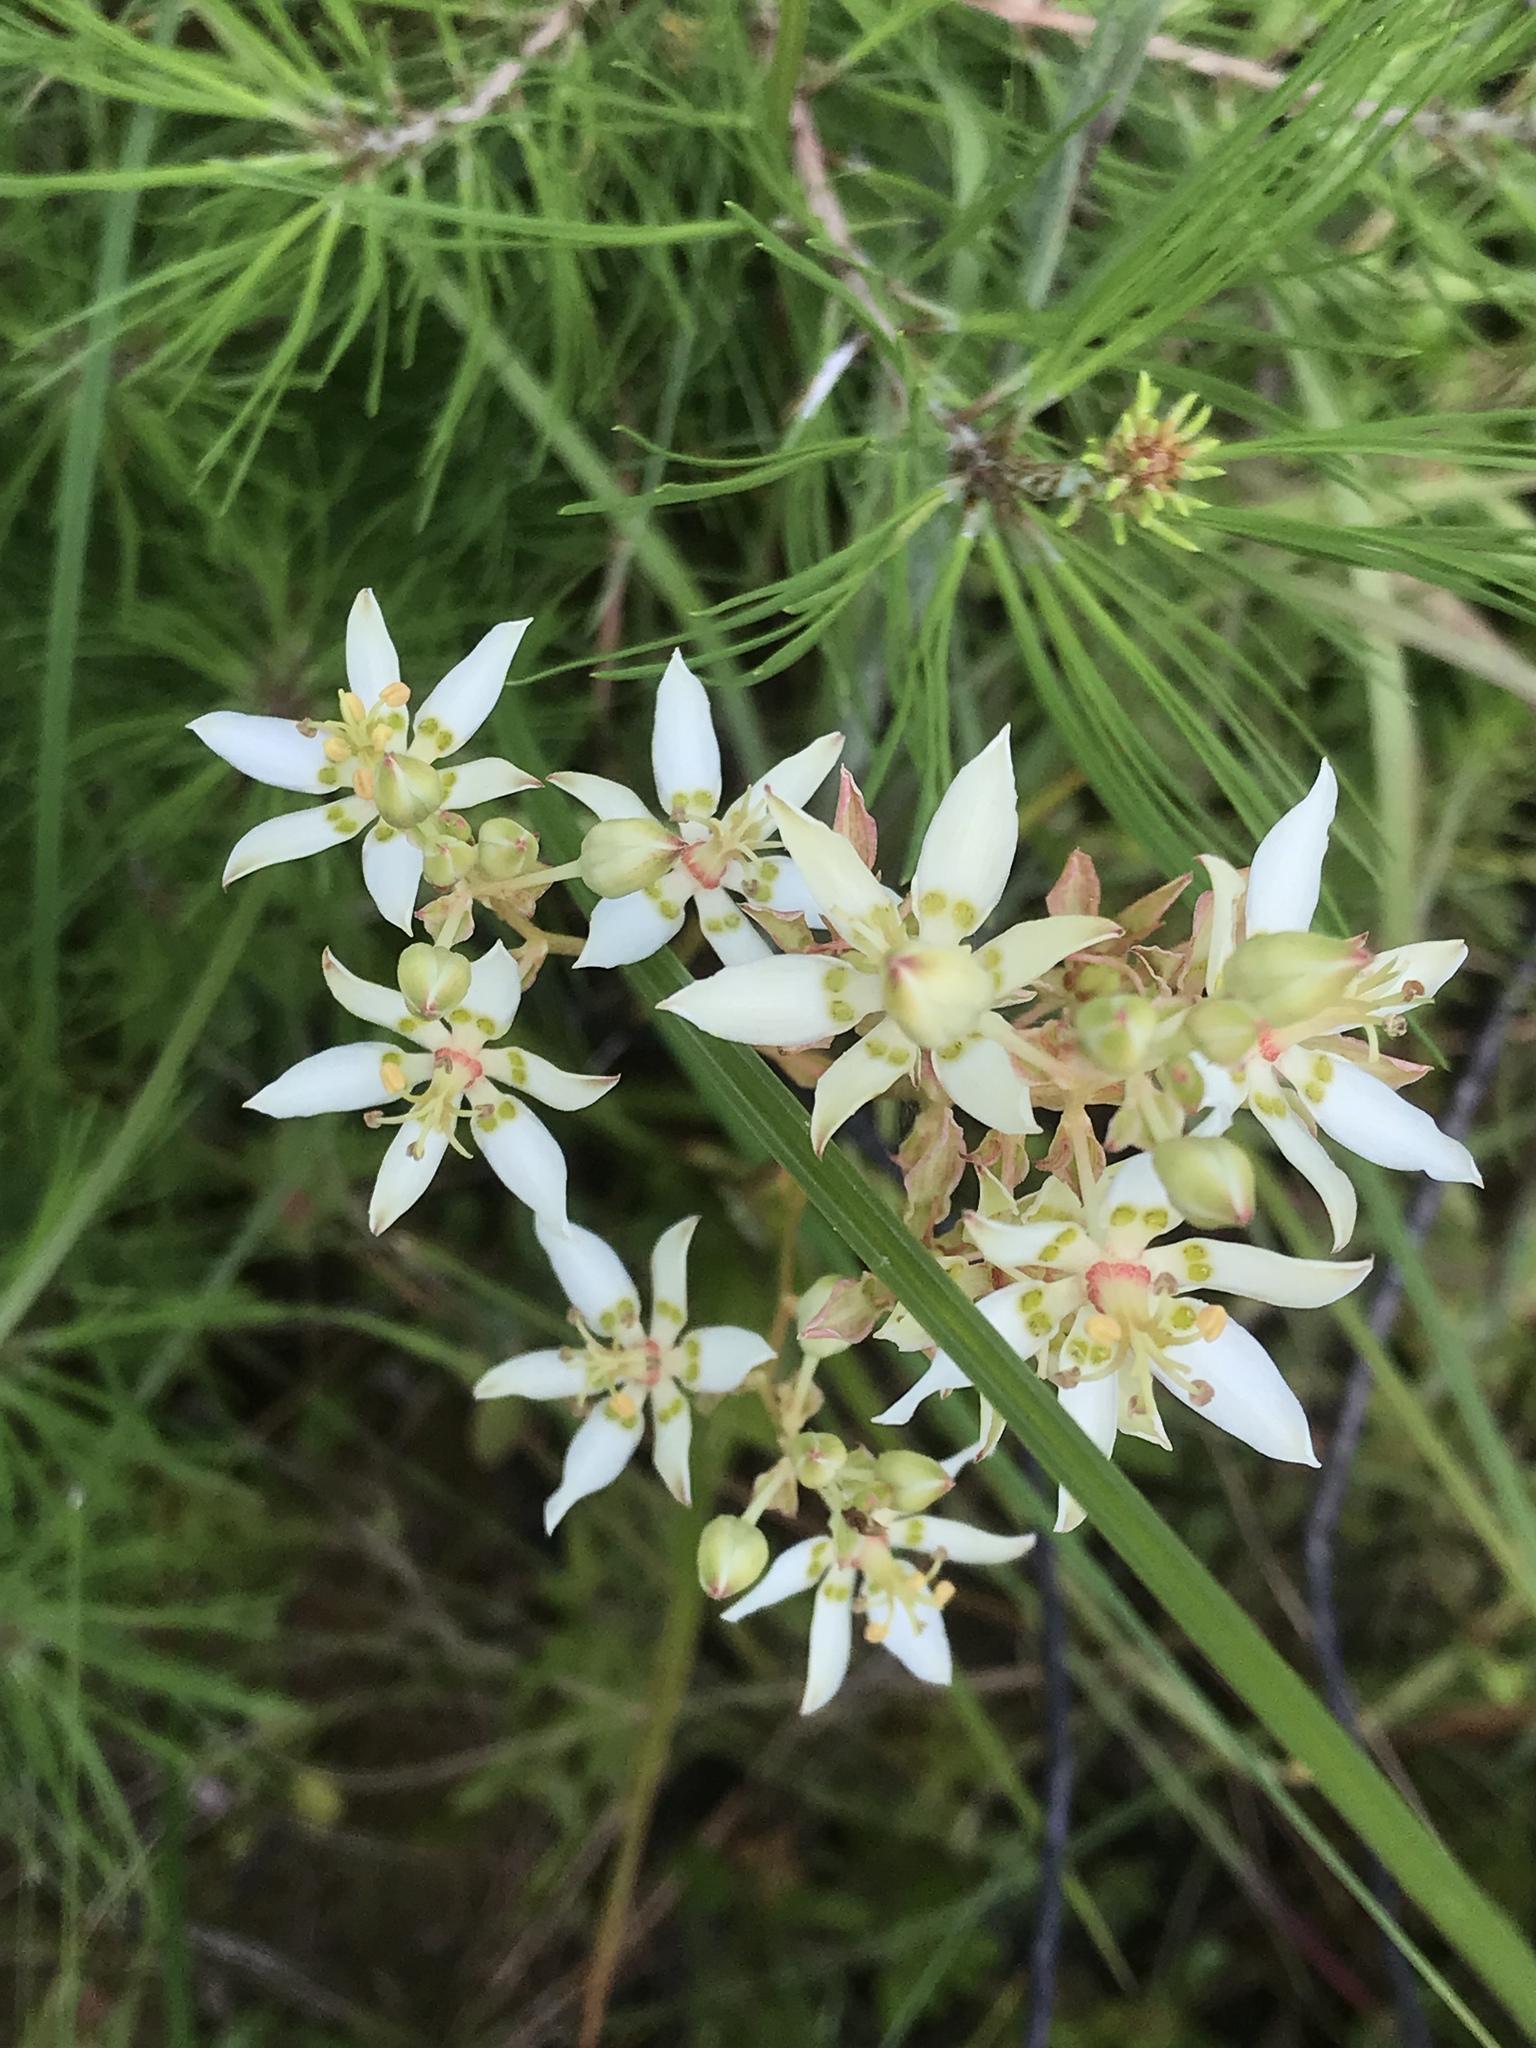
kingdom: Plantae
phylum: Tracheophyta
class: Liliopsida
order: Liliales
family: Melanthiaceae
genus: Zigadenus
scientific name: Zigadenus glaberrimus
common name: Sandbog death camas
